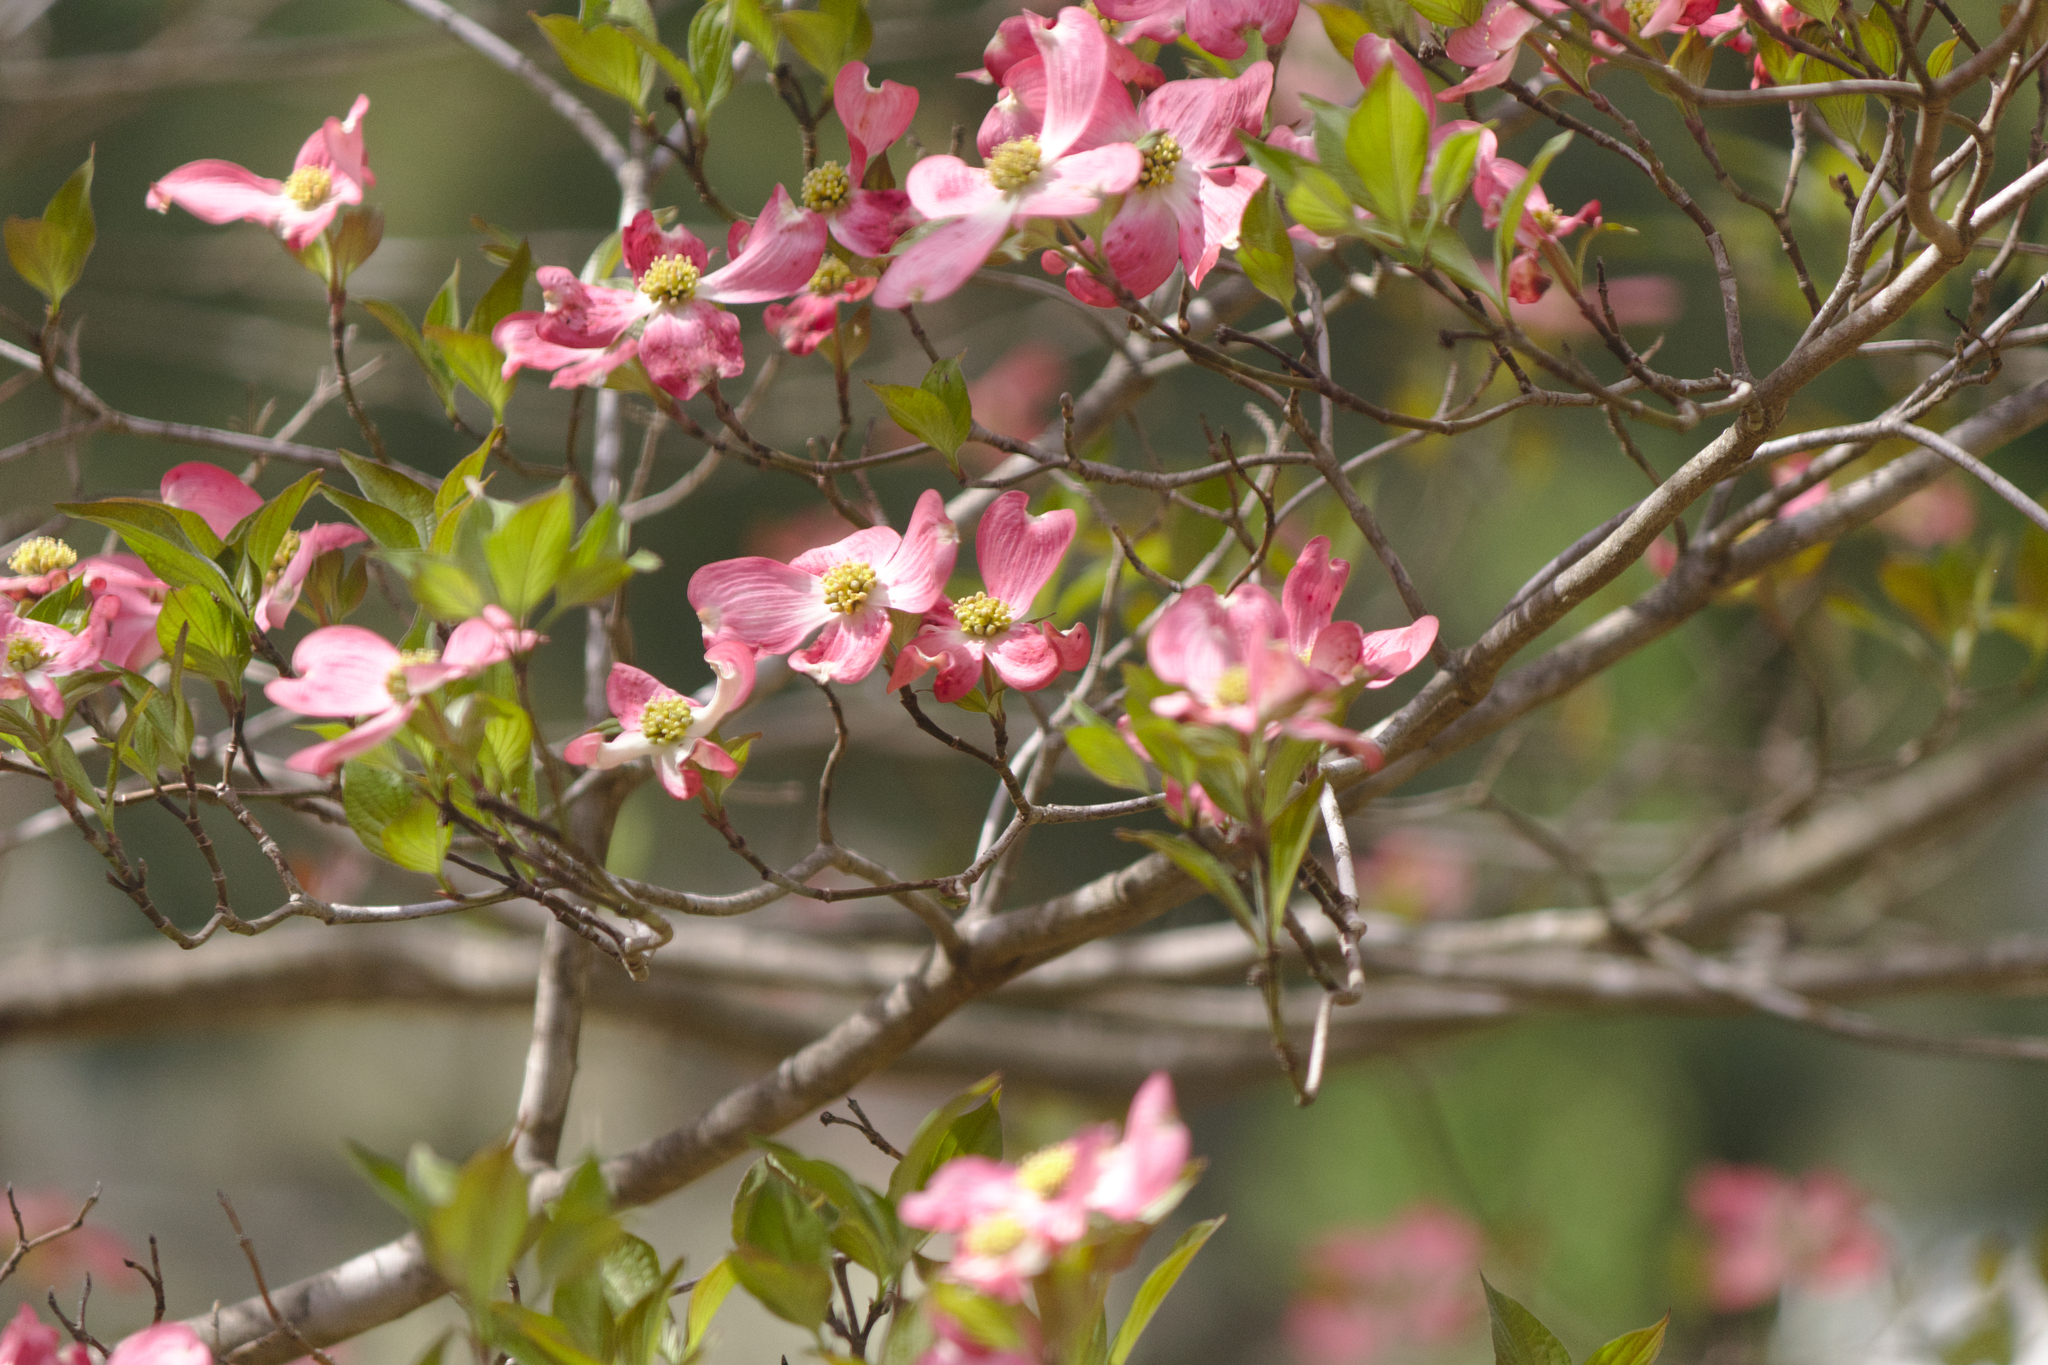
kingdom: Plantae
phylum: Tracheophyta
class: Magnoliopsida
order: Cornales
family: Cornaceae
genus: Cornus
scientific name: Cornus florida
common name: Flowering dogwood
